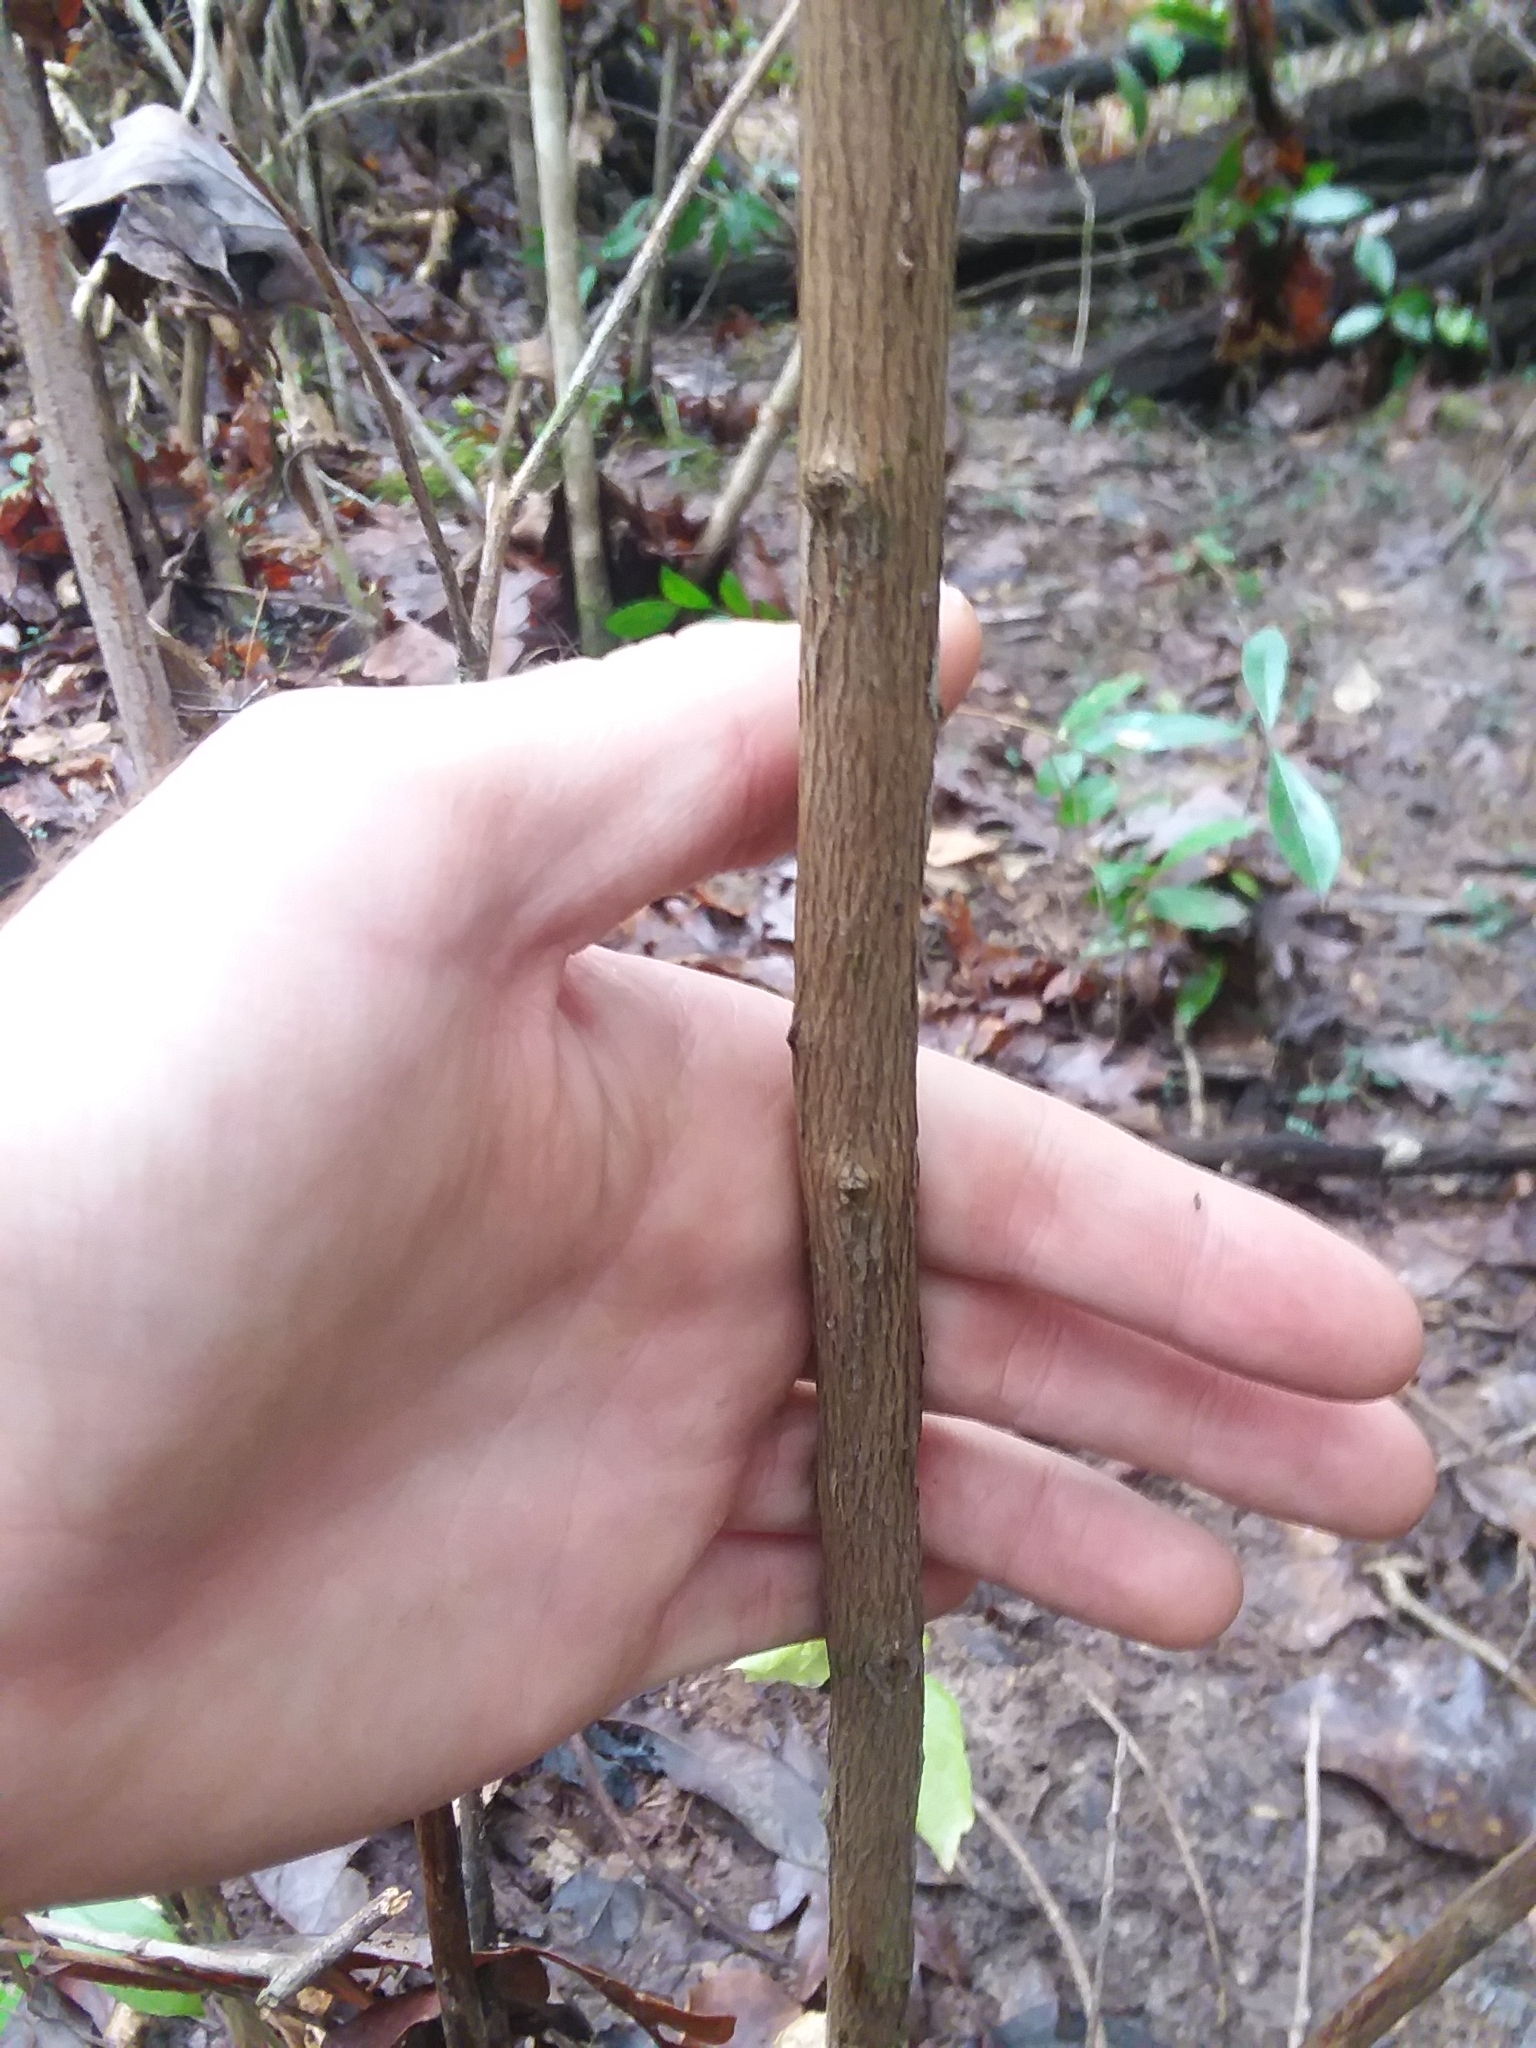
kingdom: Plantae
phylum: Tracheophyta
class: Magnoliopsida
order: Ericales
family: Ericaceae
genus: Lyonia
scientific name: Lyonia lucida
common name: Fetterbush
